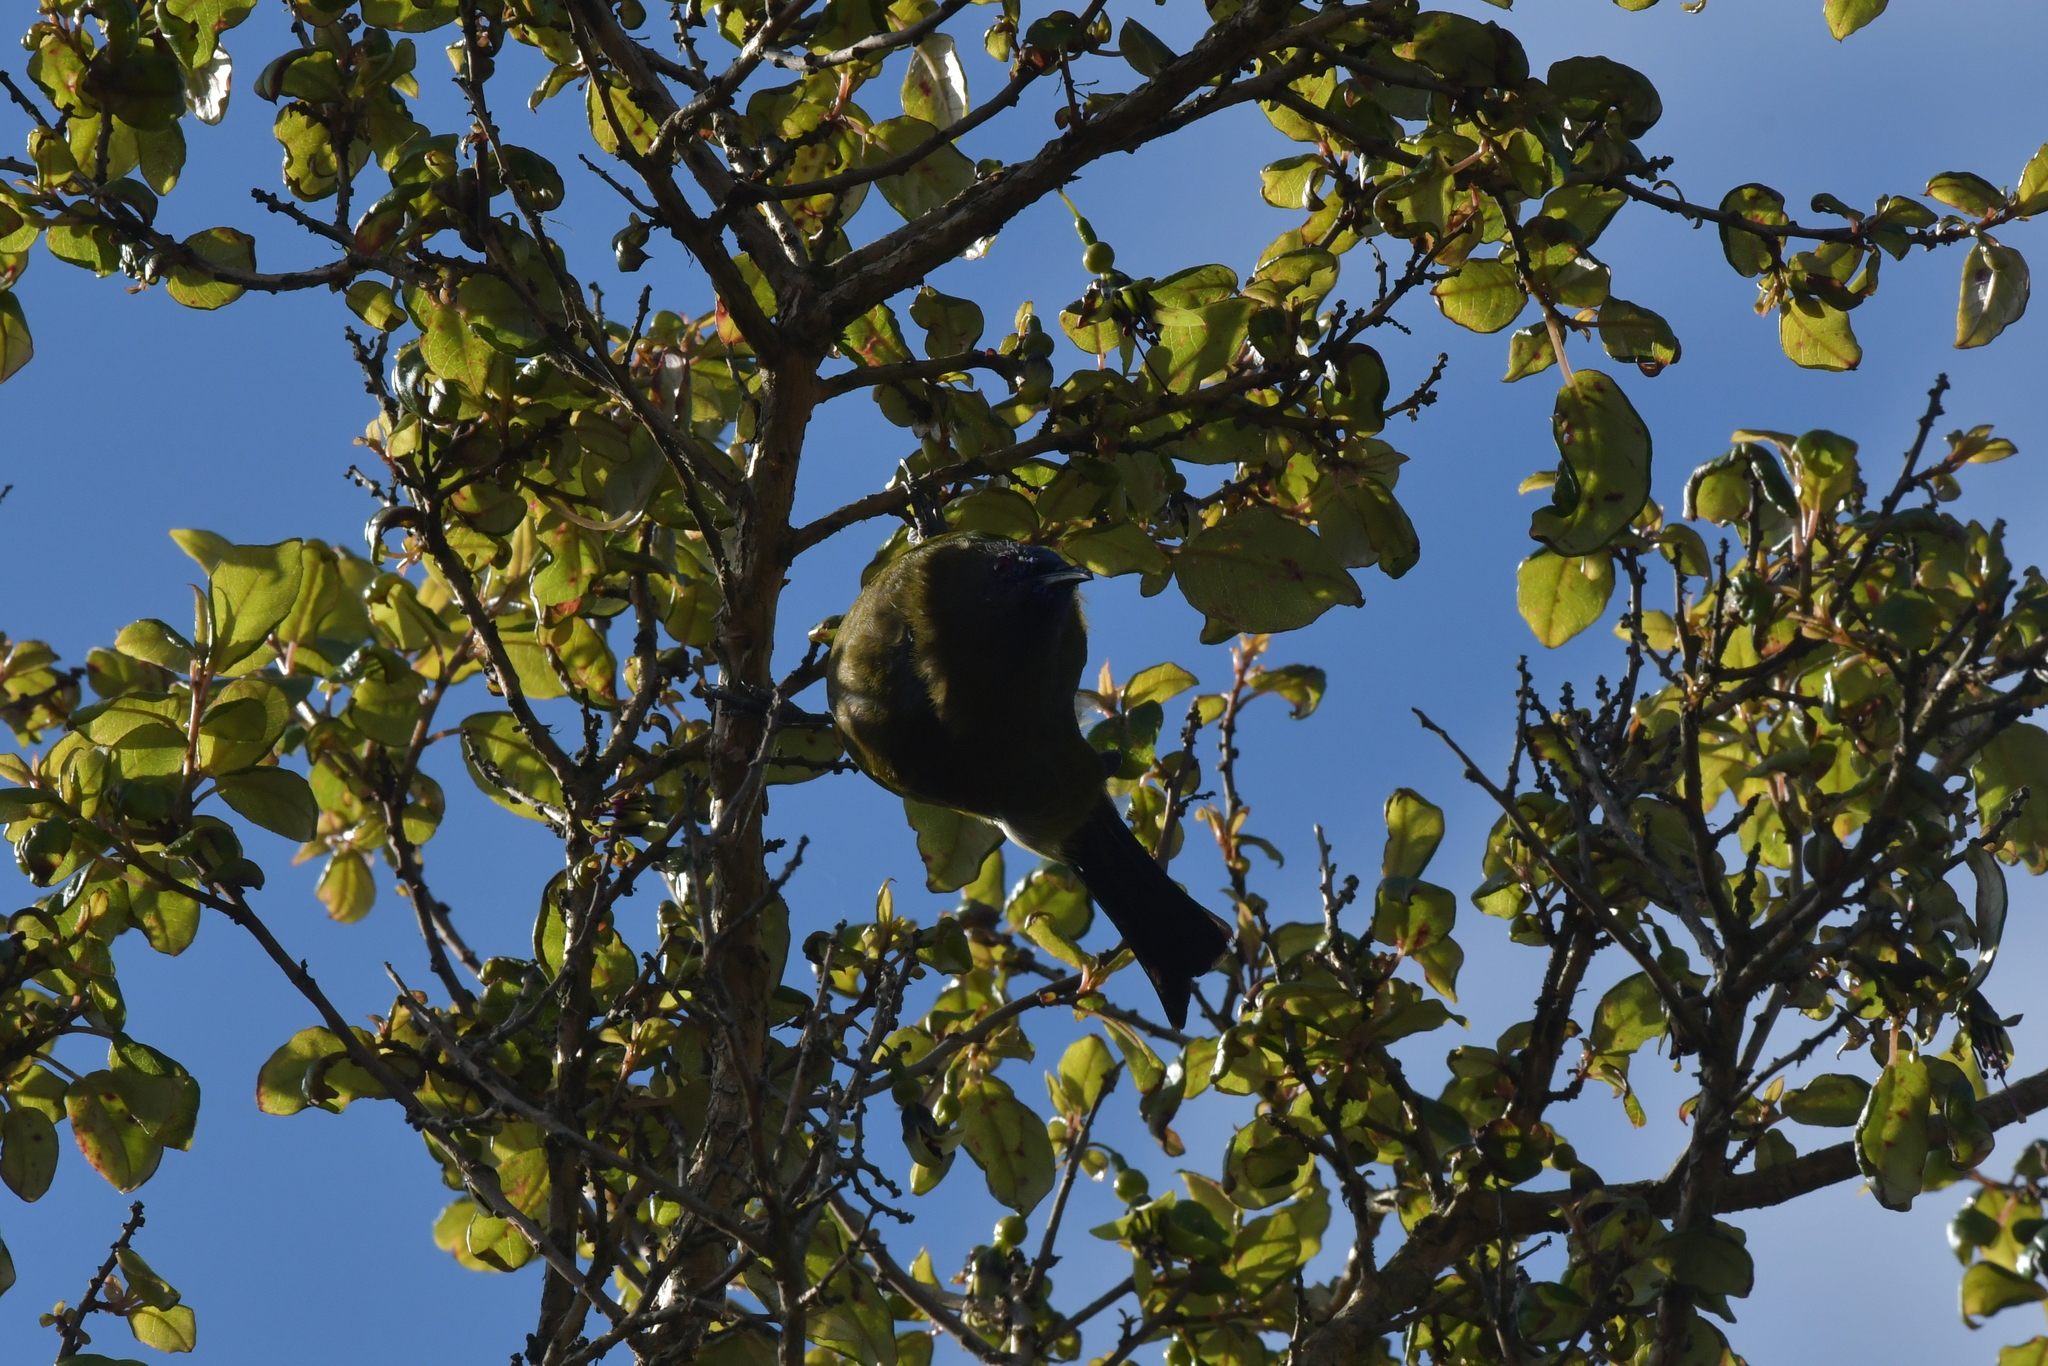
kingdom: Animalia
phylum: Chordata
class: Aves
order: Passeriformes
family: Meliphagidae
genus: Anthornis
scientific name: Anthornis melanura
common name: New zealand bellbird
